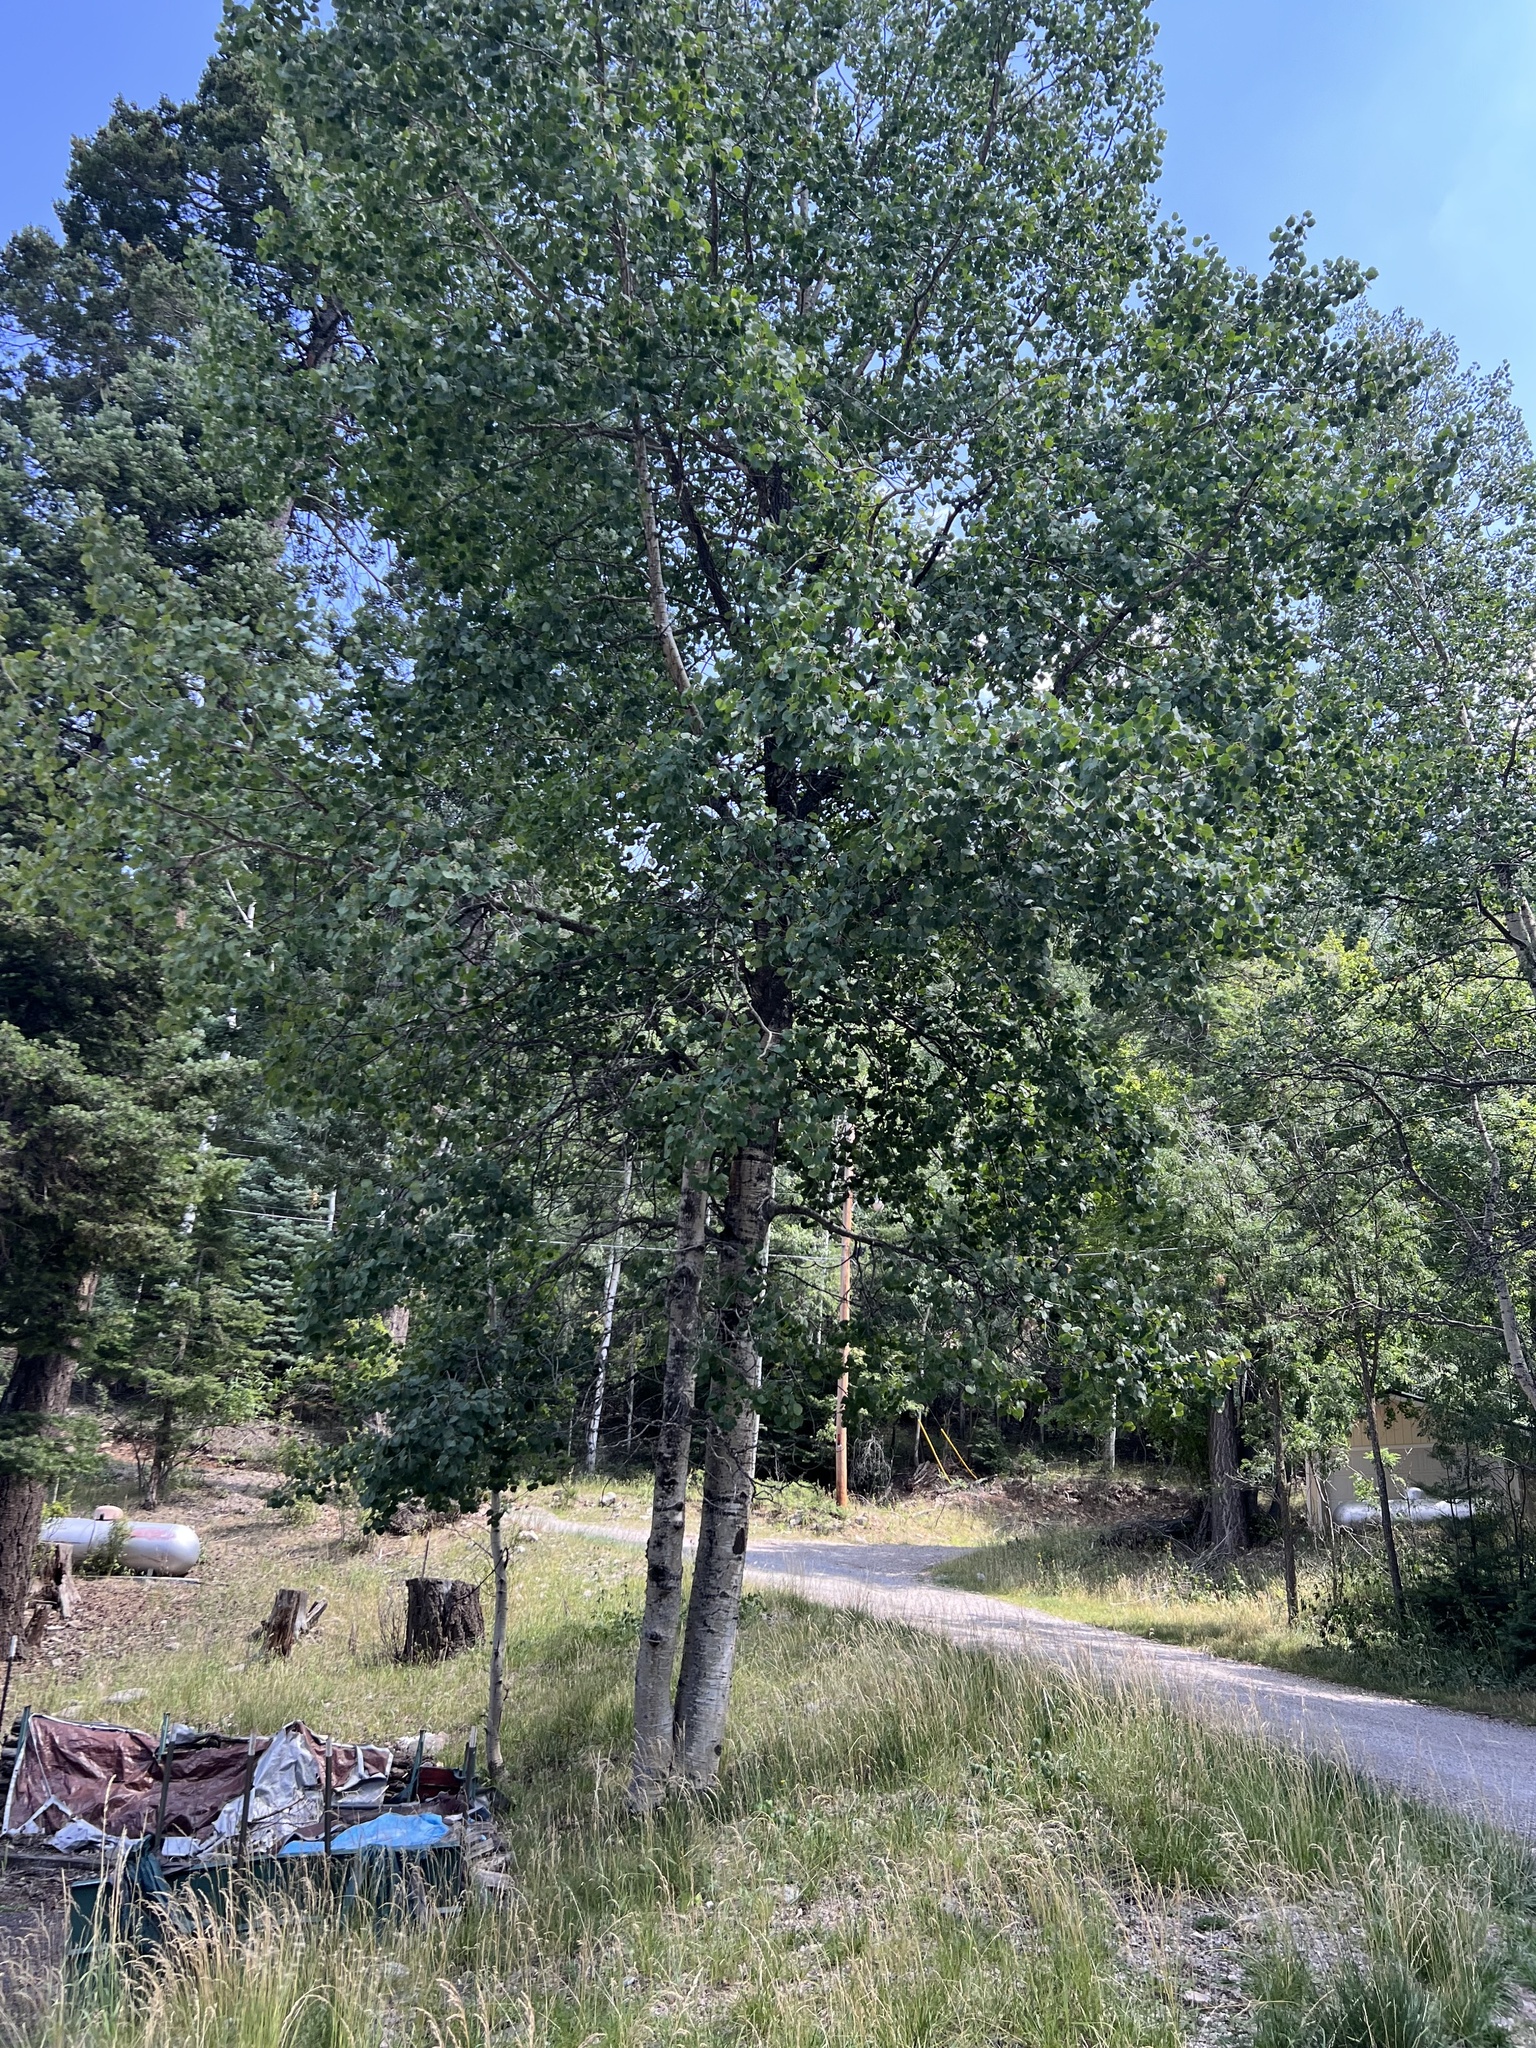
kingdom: Plantae
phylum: Tracheophyta
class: Magnoliopsida
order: Malpighiales
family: Salicaceae
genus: Populus
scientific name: Populus tremuloides
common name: Quaking aspen
